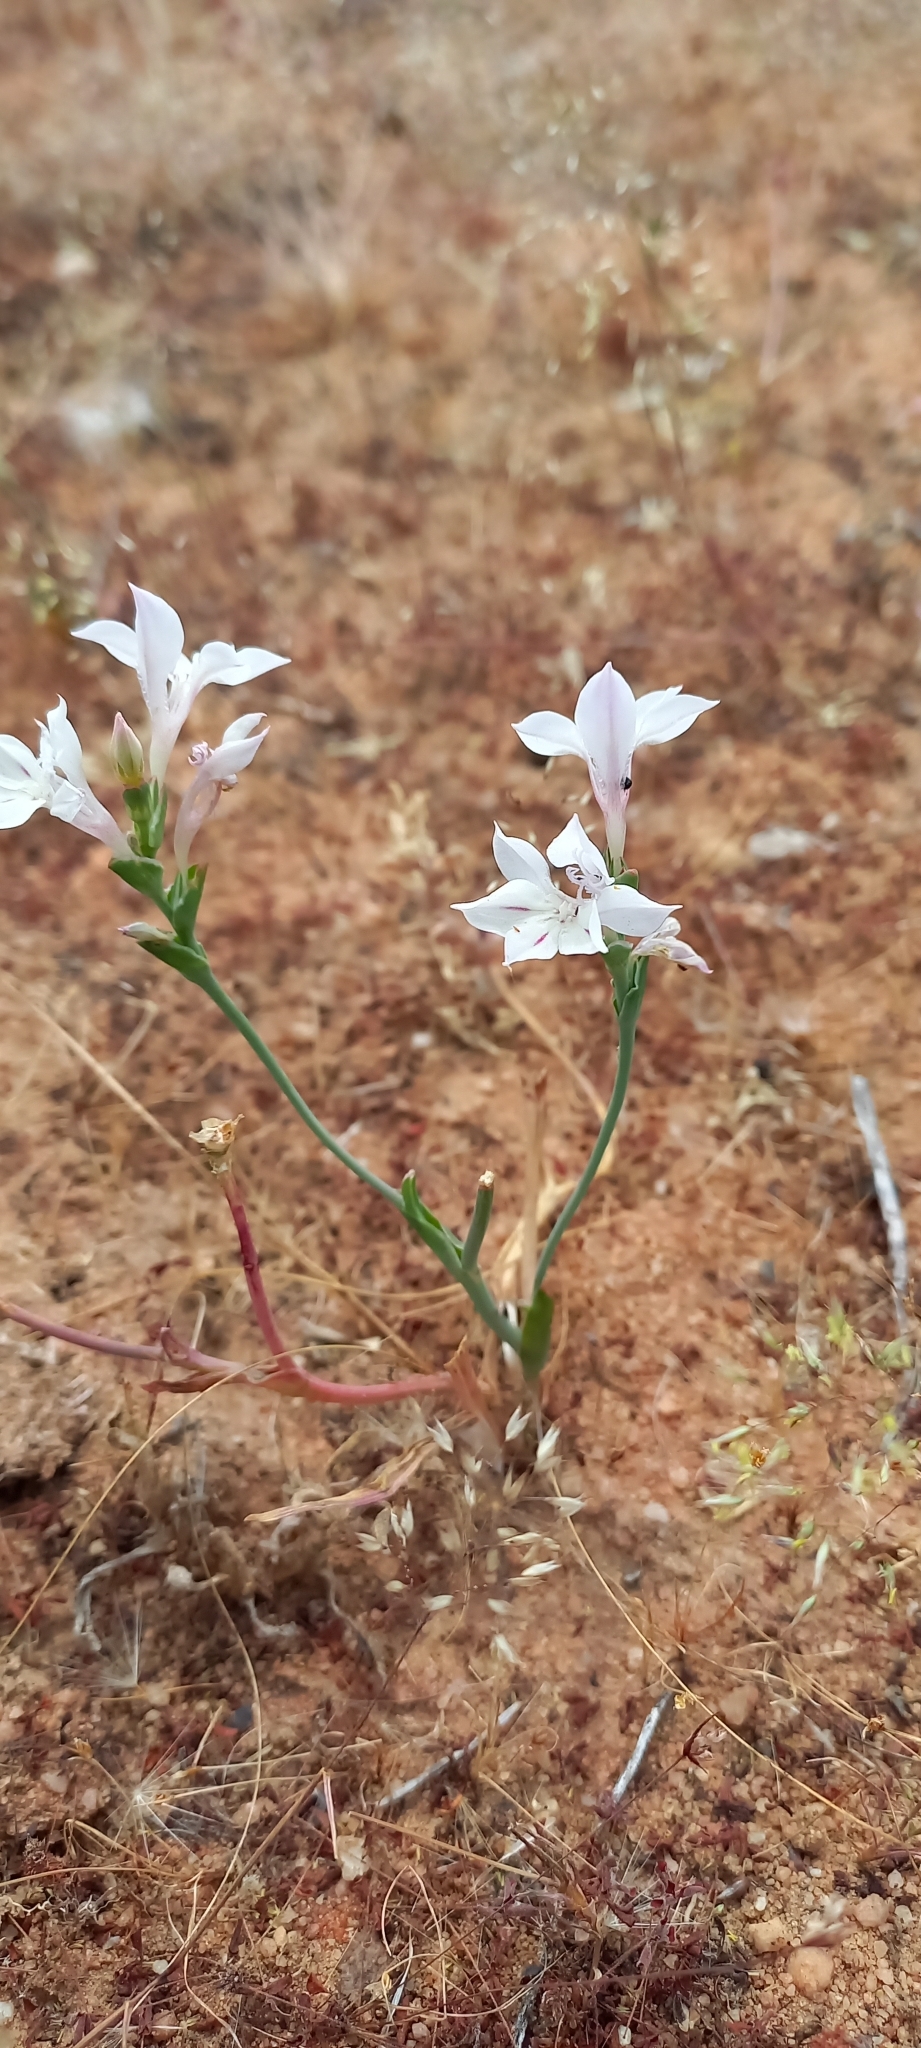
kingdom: Plantae
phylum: Tracheophyta
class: Liliopsida
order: Asparagales
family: Iridaceae
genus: Lapeirousia
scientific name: Lapeirousia divaricata
